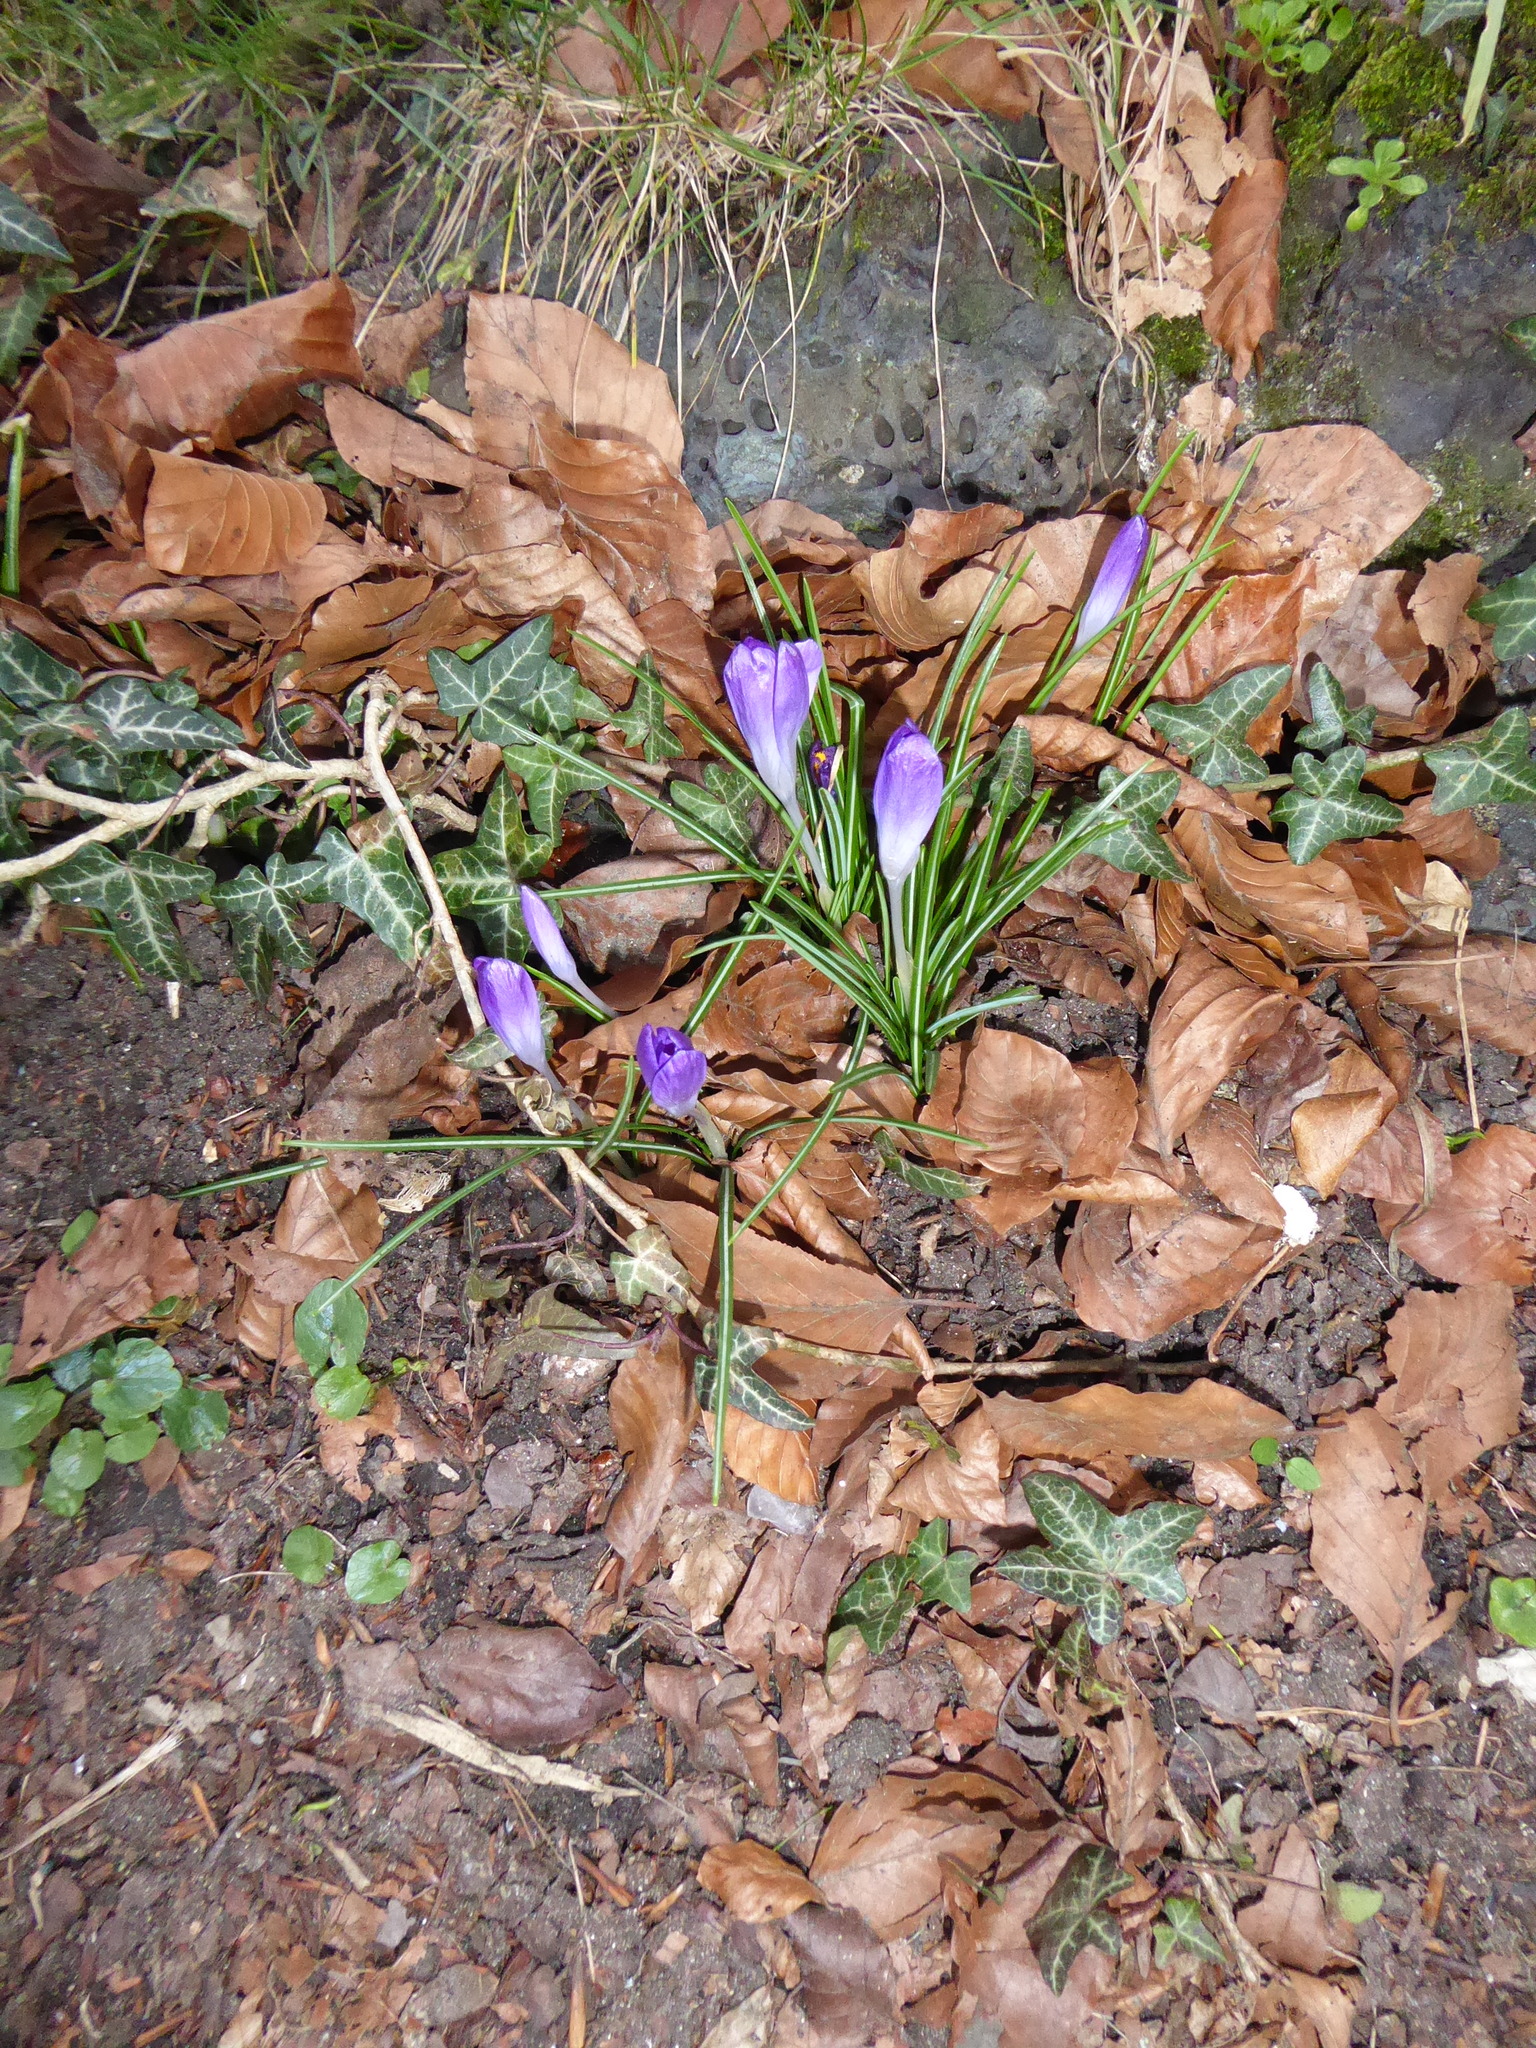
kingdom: Plantae
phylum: Tracheophyta
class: Liliopsida
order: Asparagales
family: Iridaceae
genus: Crocus
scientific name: Crocus tommasinianus
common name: Early crocus
